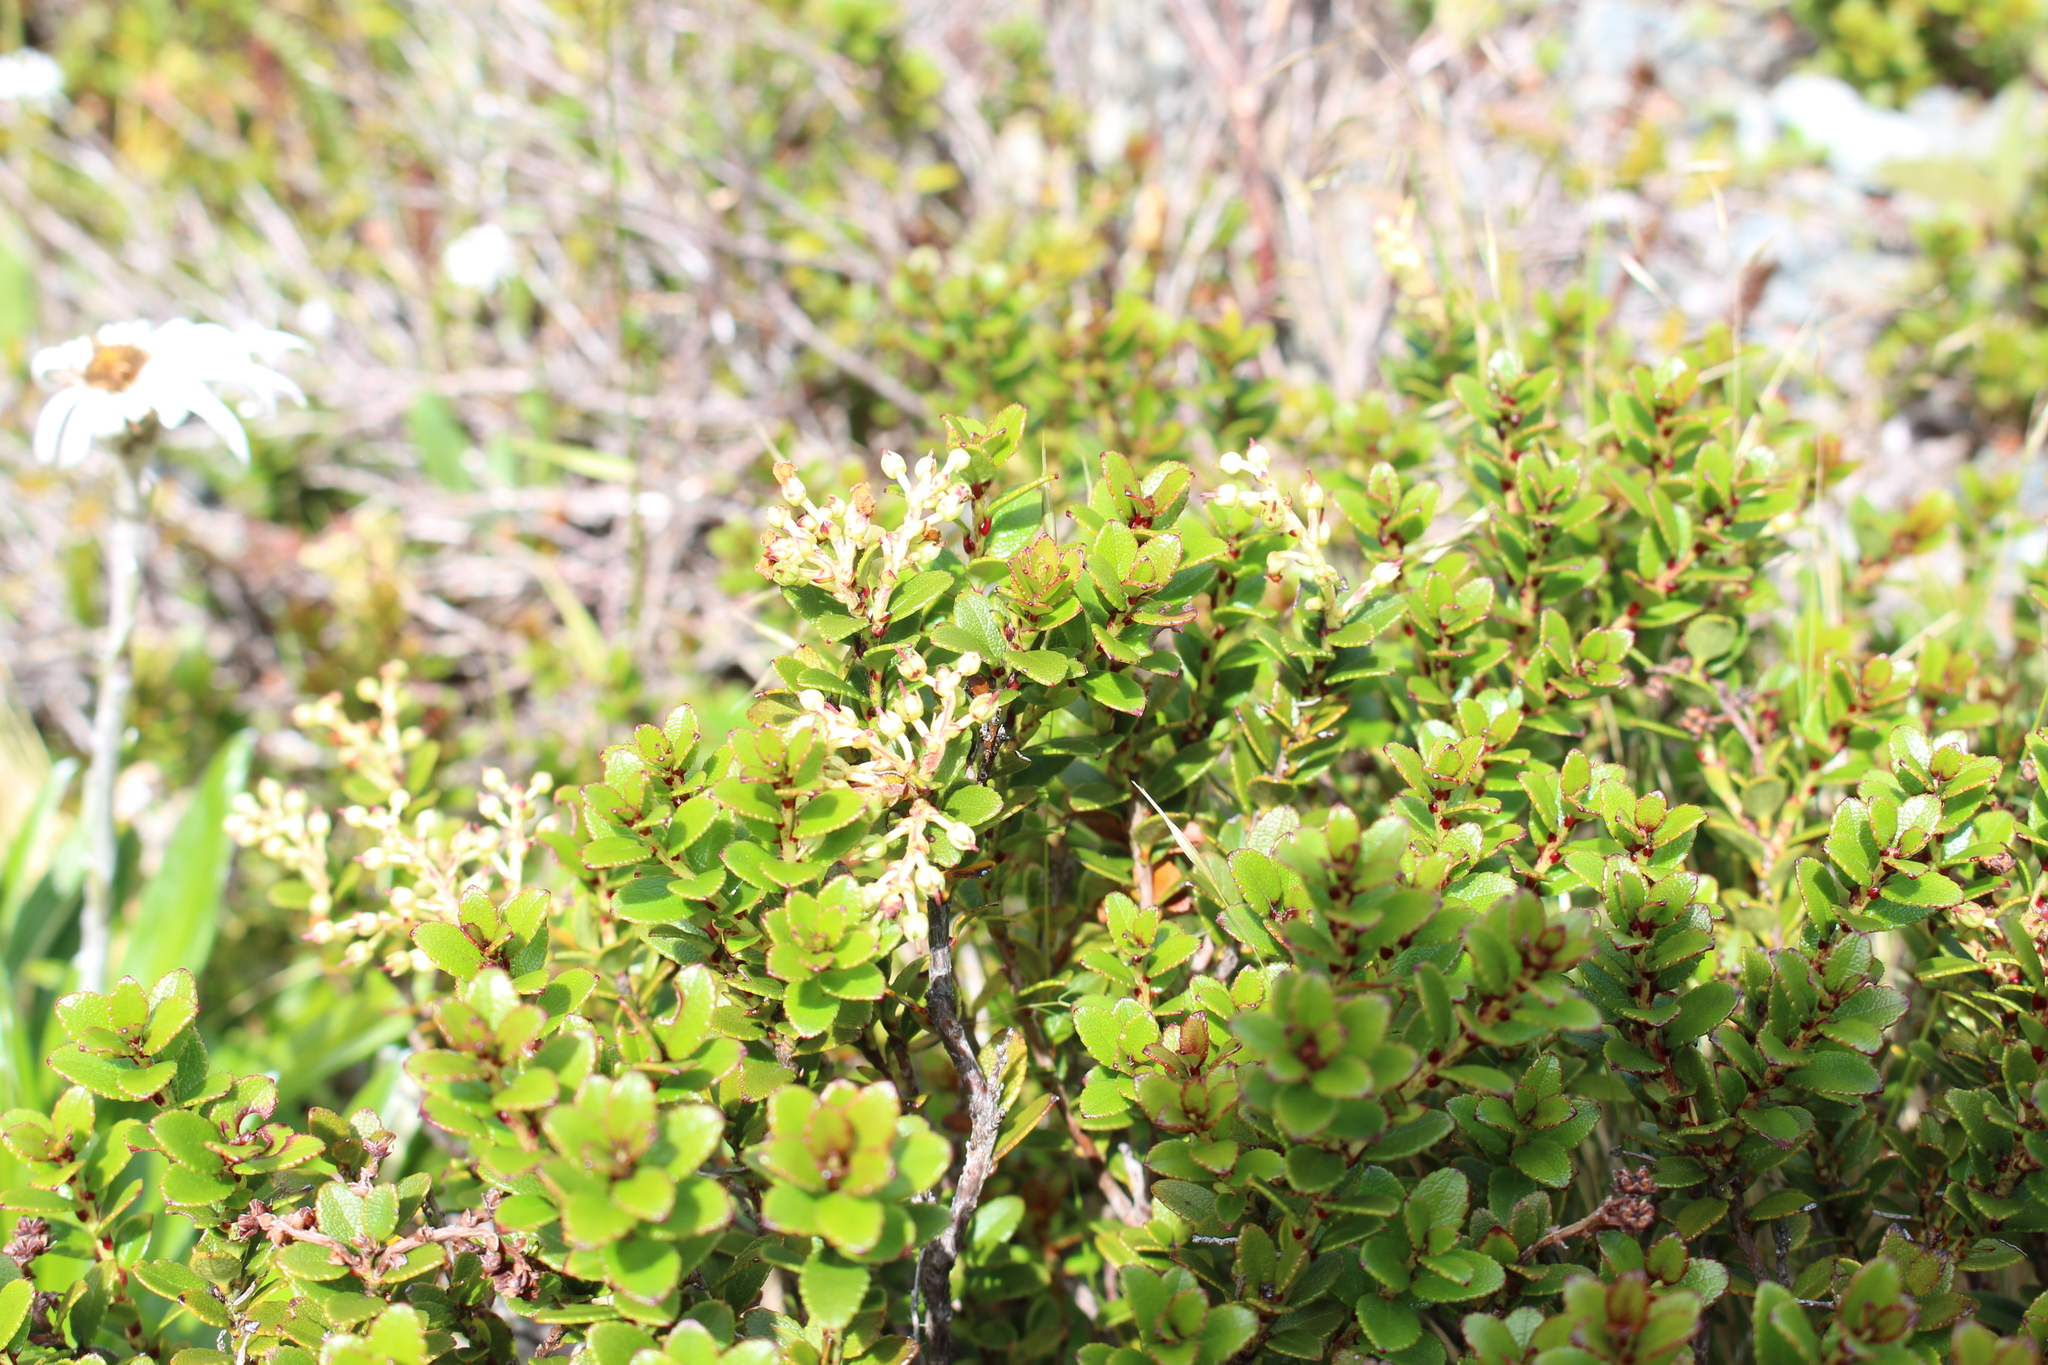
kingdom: Plantae
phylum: Tracheophyta
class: Magnoliopsida
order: Ericales
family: Ericaceae
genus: Gaultheria
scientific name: Gaultheria crassa
